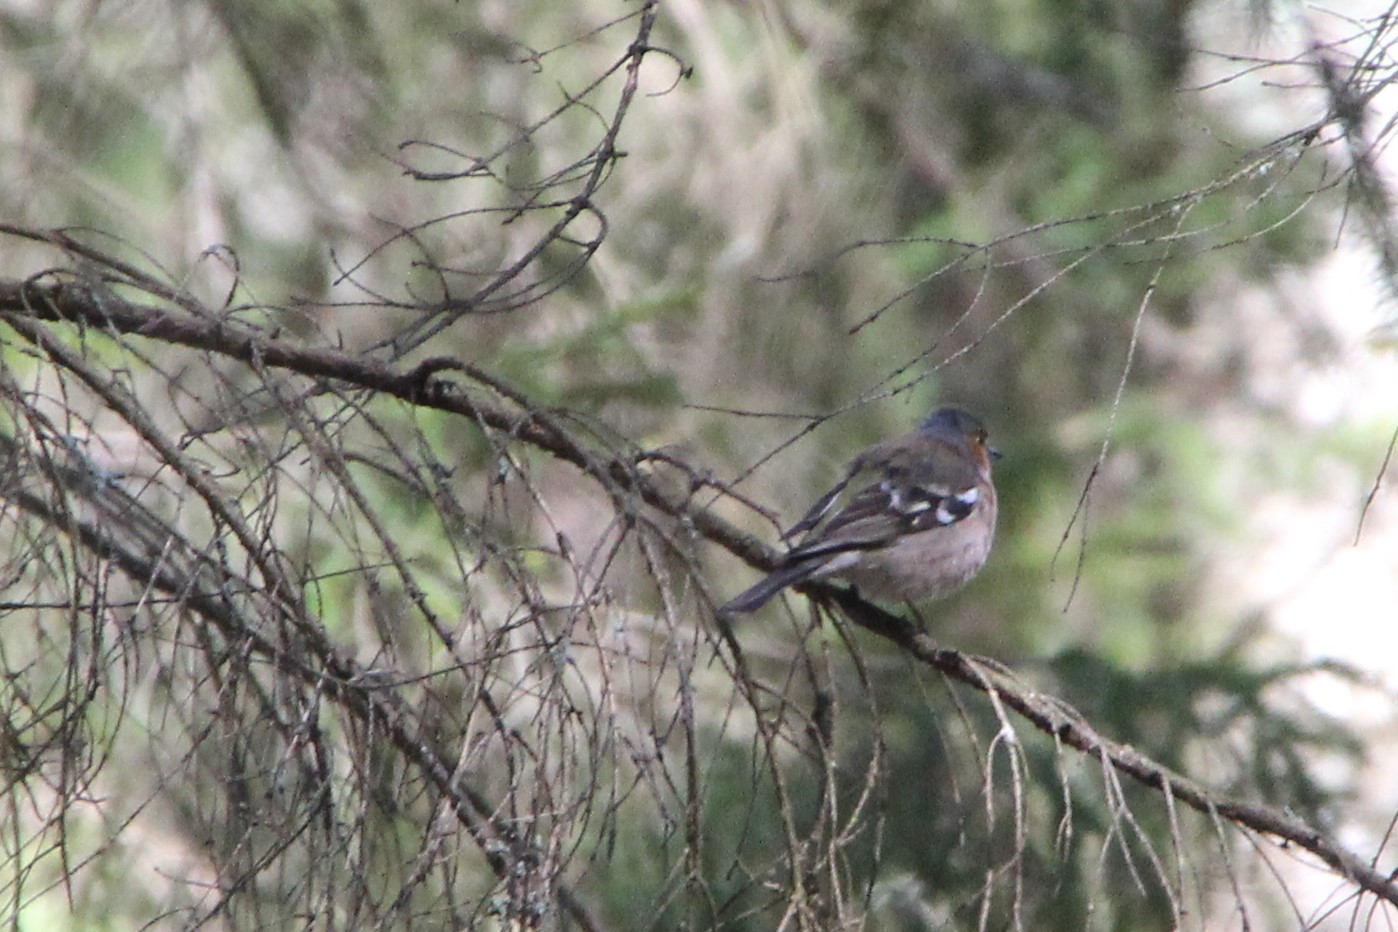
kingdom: Animalia
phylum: Chordata
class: Aves
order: Passeriformes
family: Fringillidae
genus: Fringilla
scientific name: Fringilla coelebs
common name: Common chaffinch
